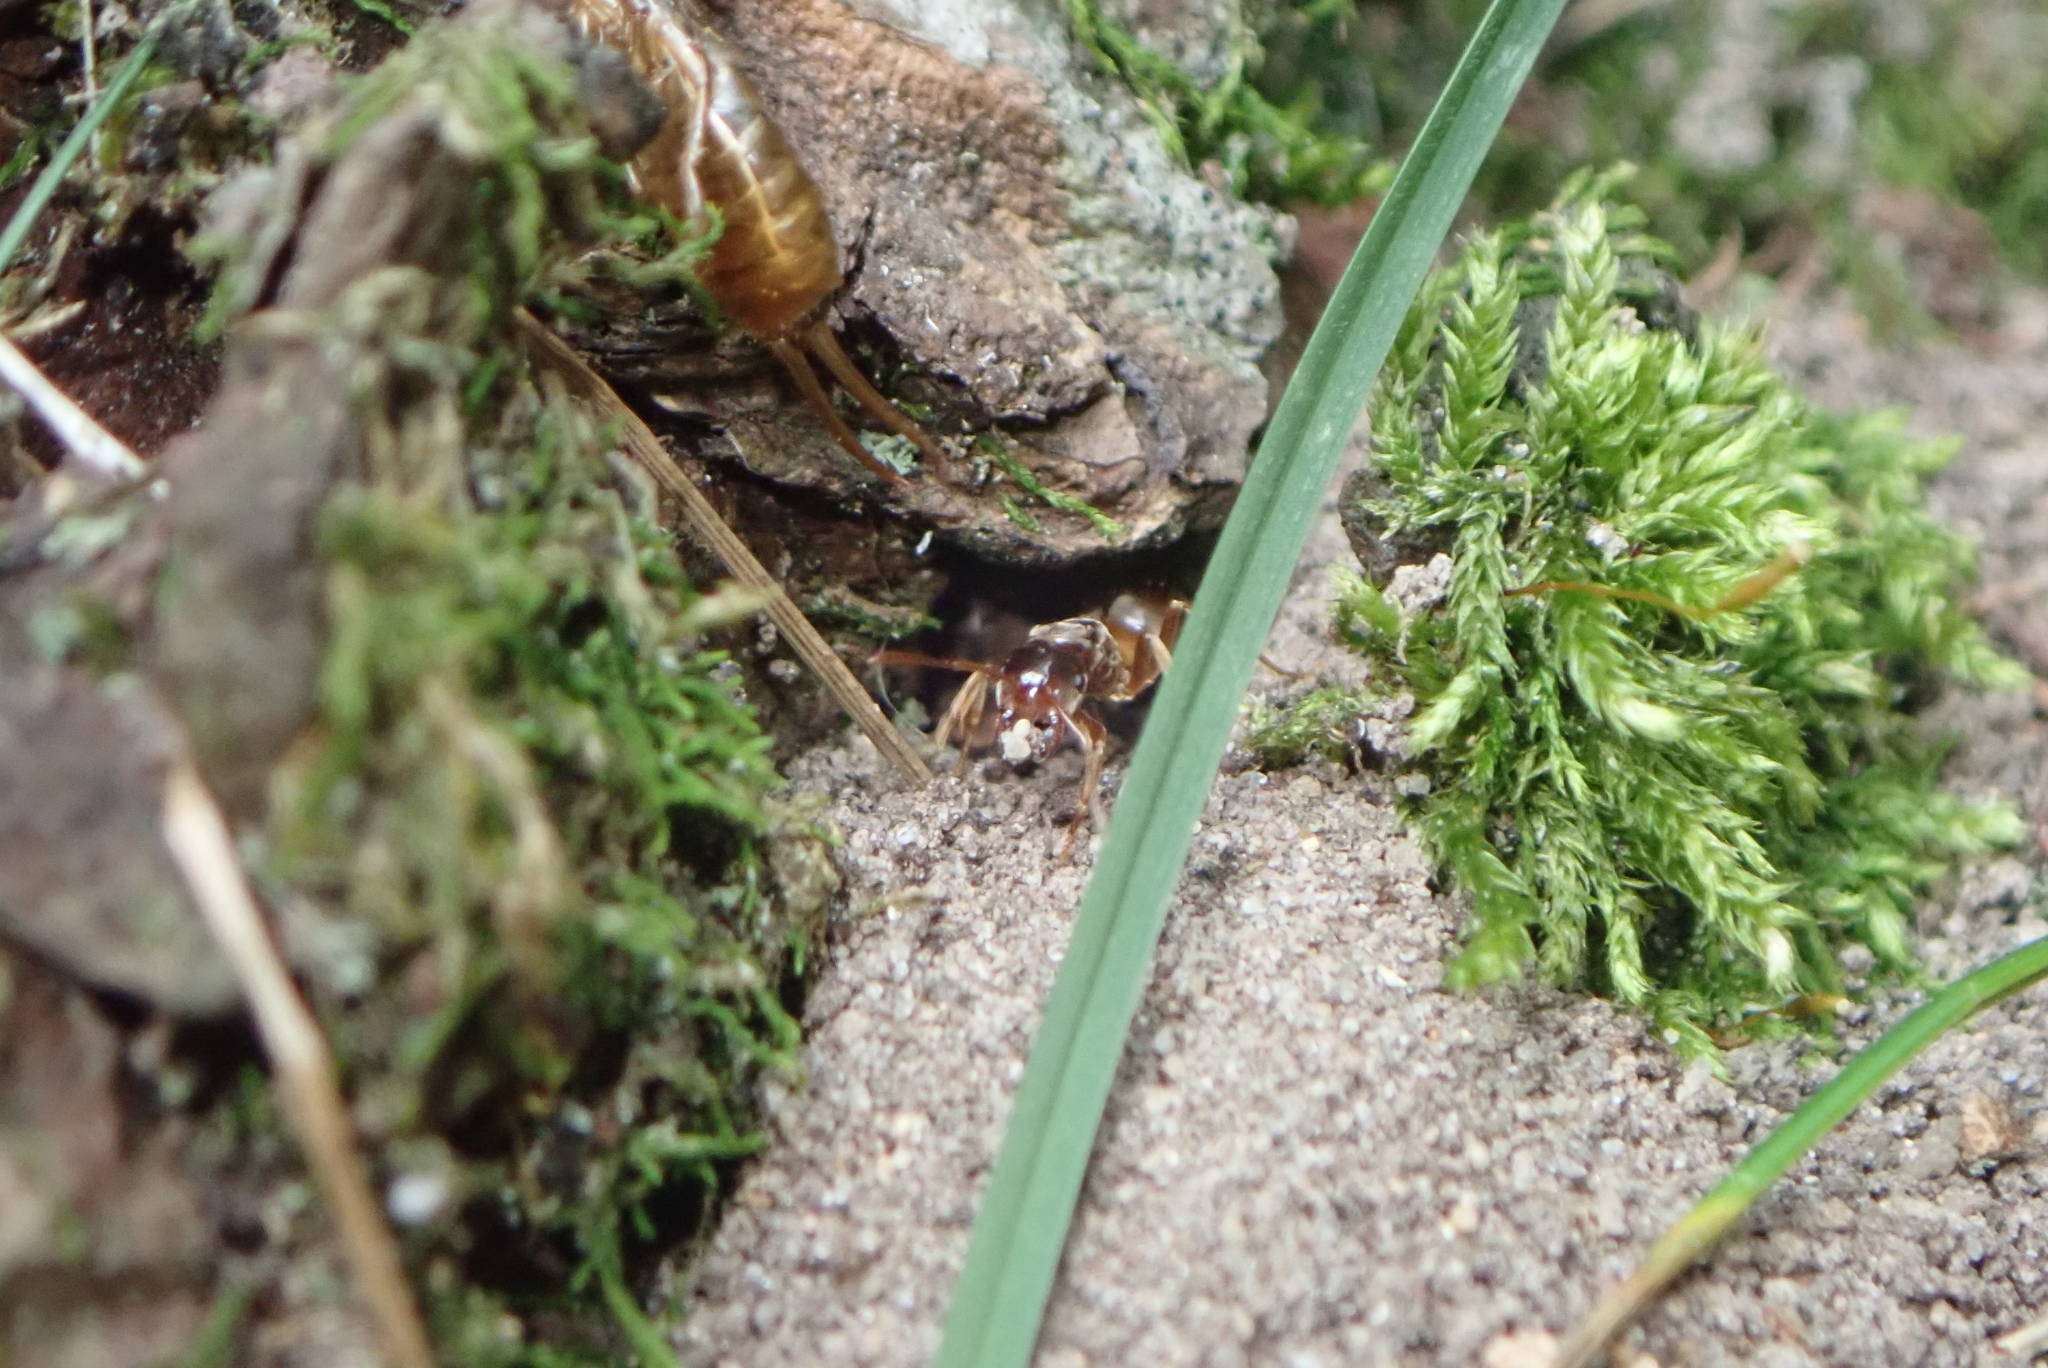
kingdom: Animalia
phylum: Arthropoda
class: Insecta
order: Hymenoptera
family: Formicidae
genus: Lasius
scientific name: Lasius speculiventris
